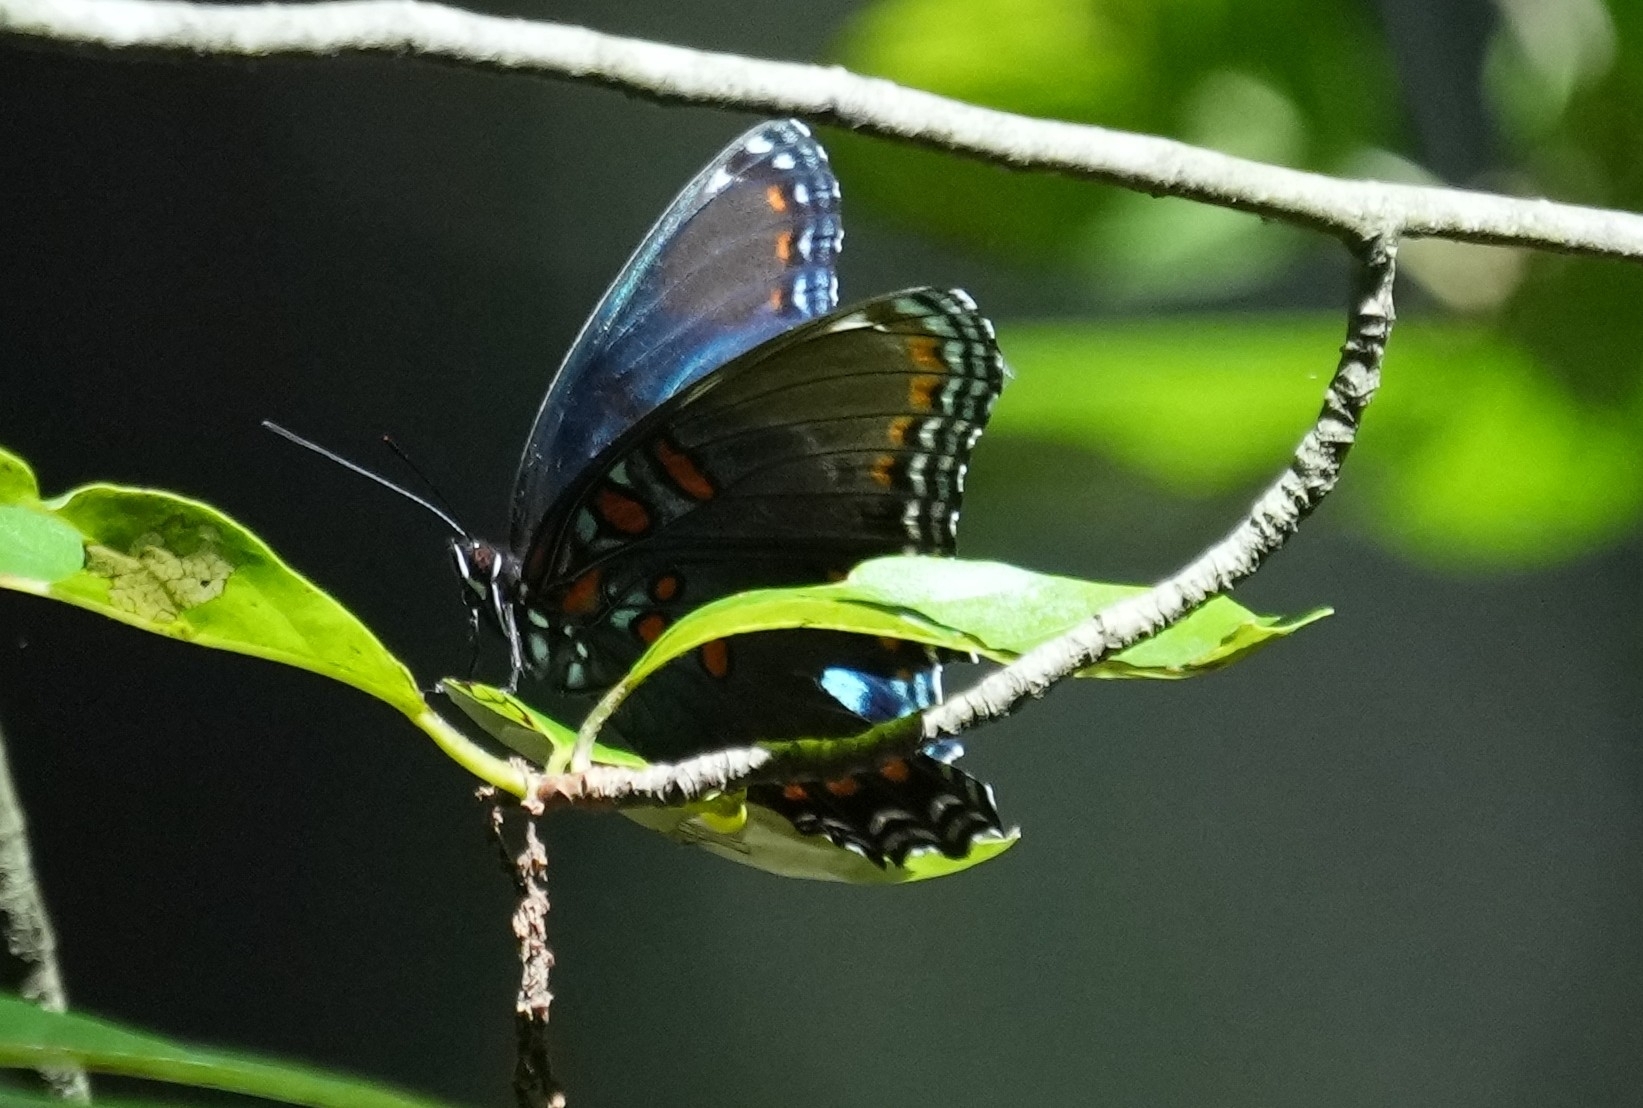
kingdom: Animalia
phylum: Arthropoda
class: Insecta
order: Lepidoptera
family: Nymphalidae
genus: Limenitis
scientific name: Limenitis astyanax
